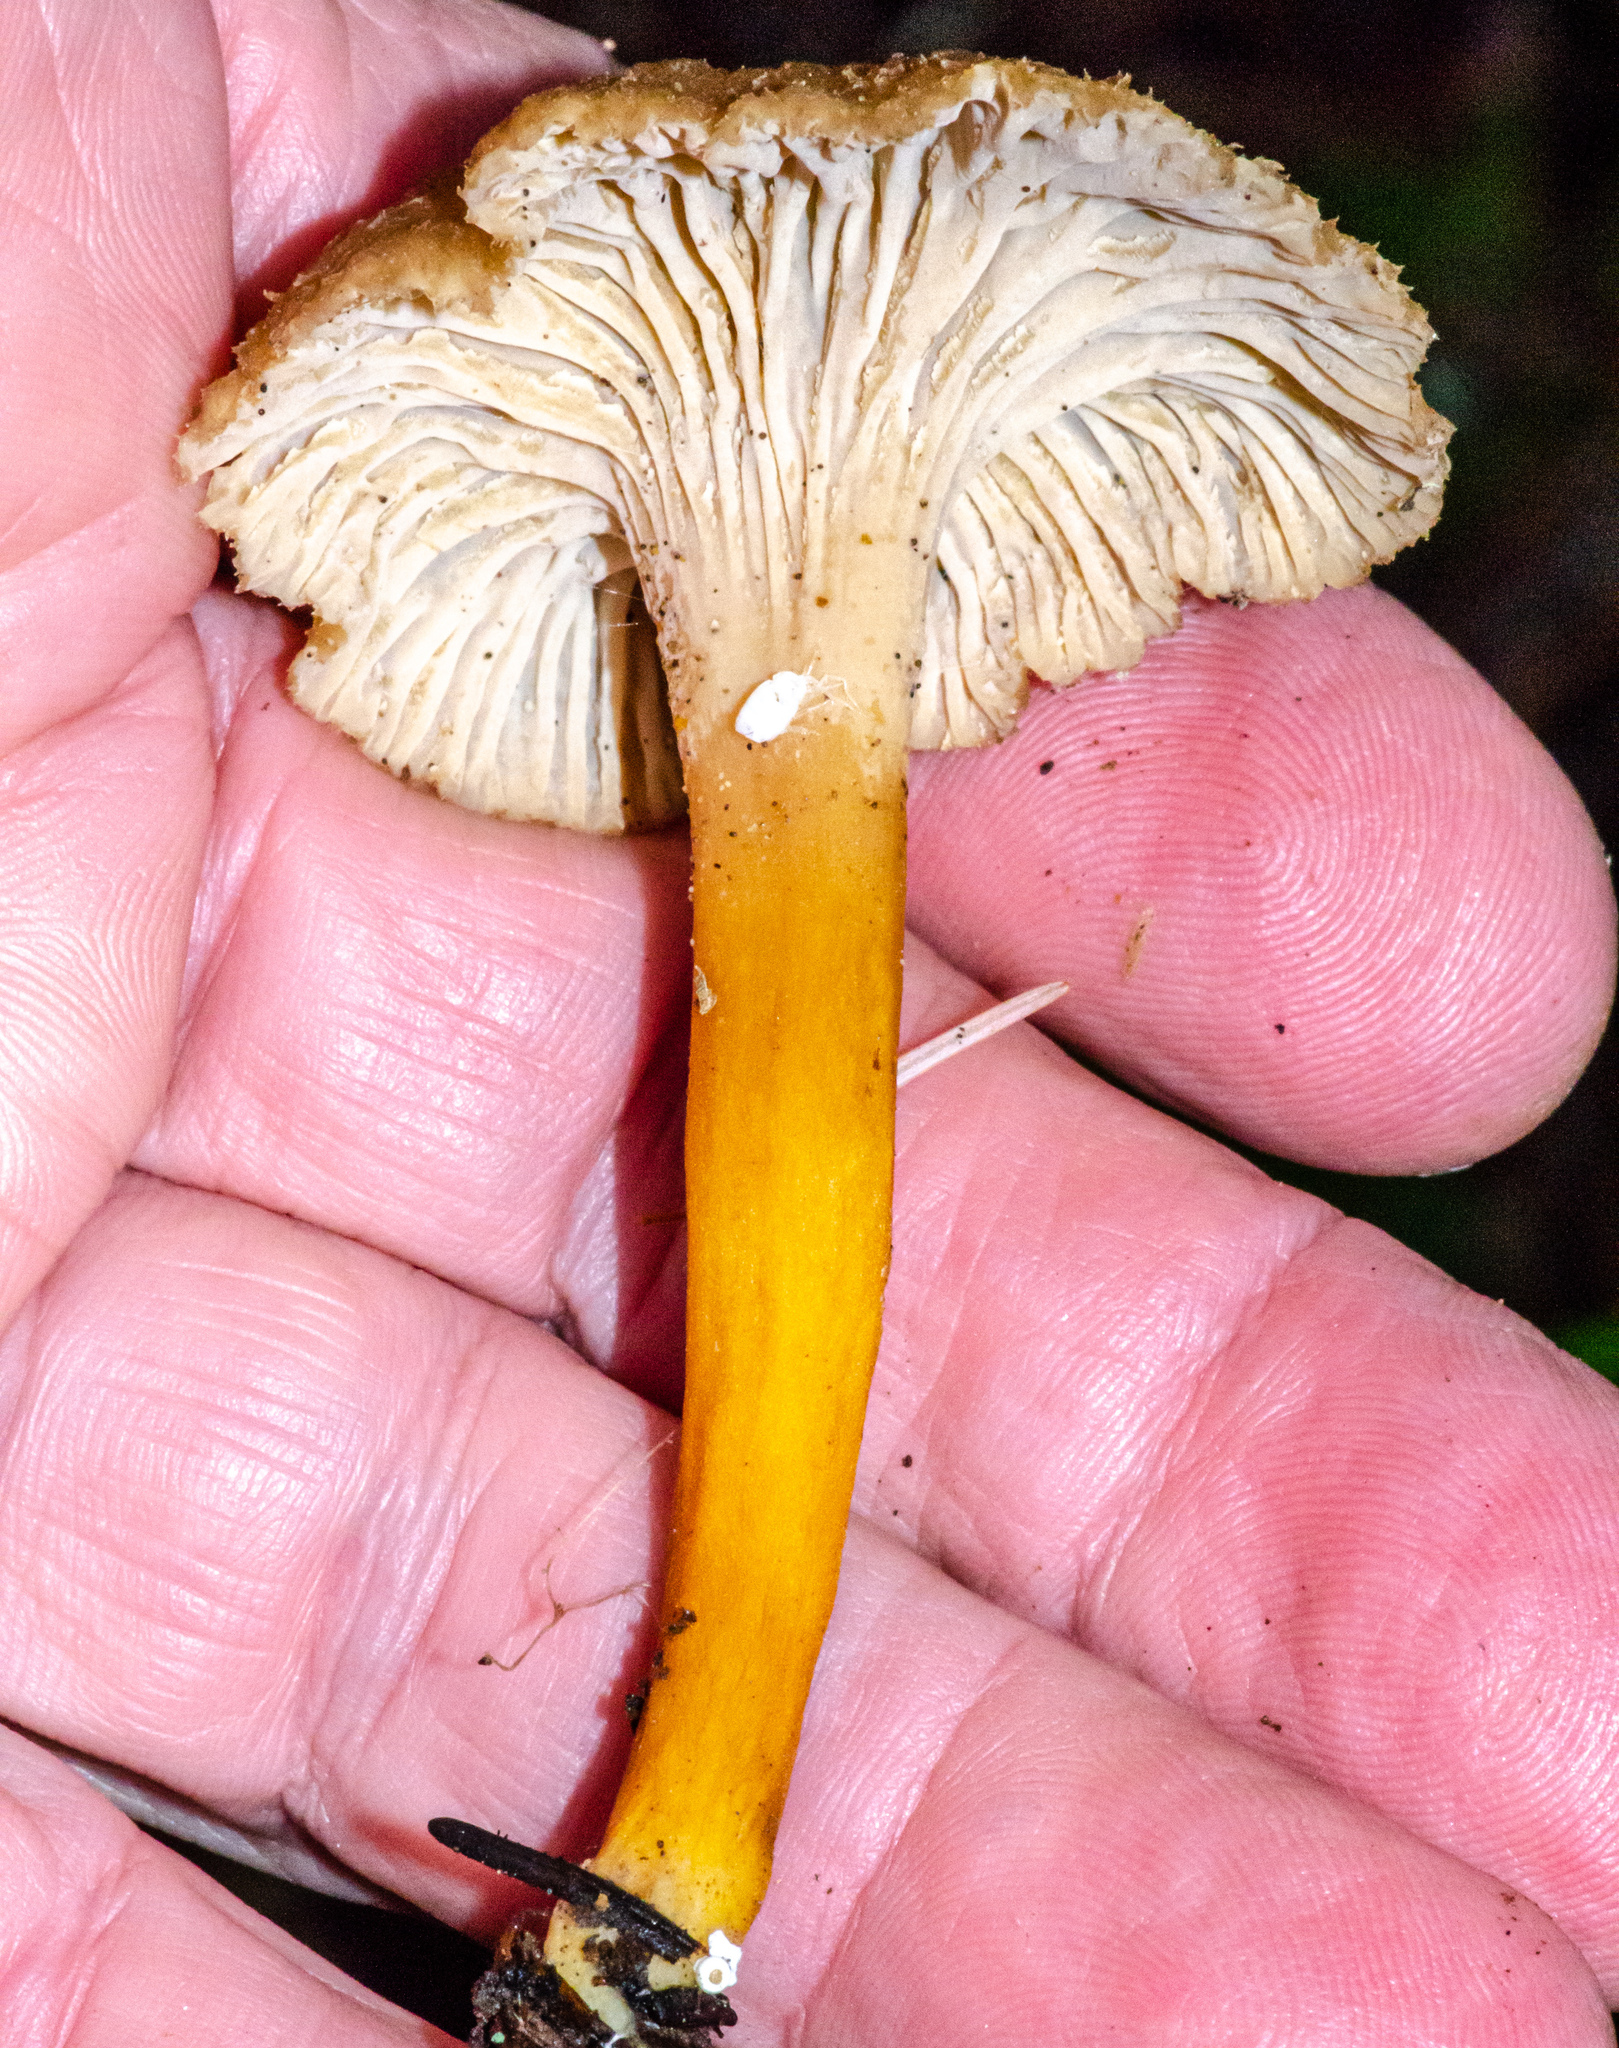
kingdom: Fungi
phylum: Basidiomycota
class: Agaricomycetes
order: Cantharellales
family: Hydnaceae
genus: Craterellus
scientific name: Craterellus tubaeformis
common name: Yellowfoot
